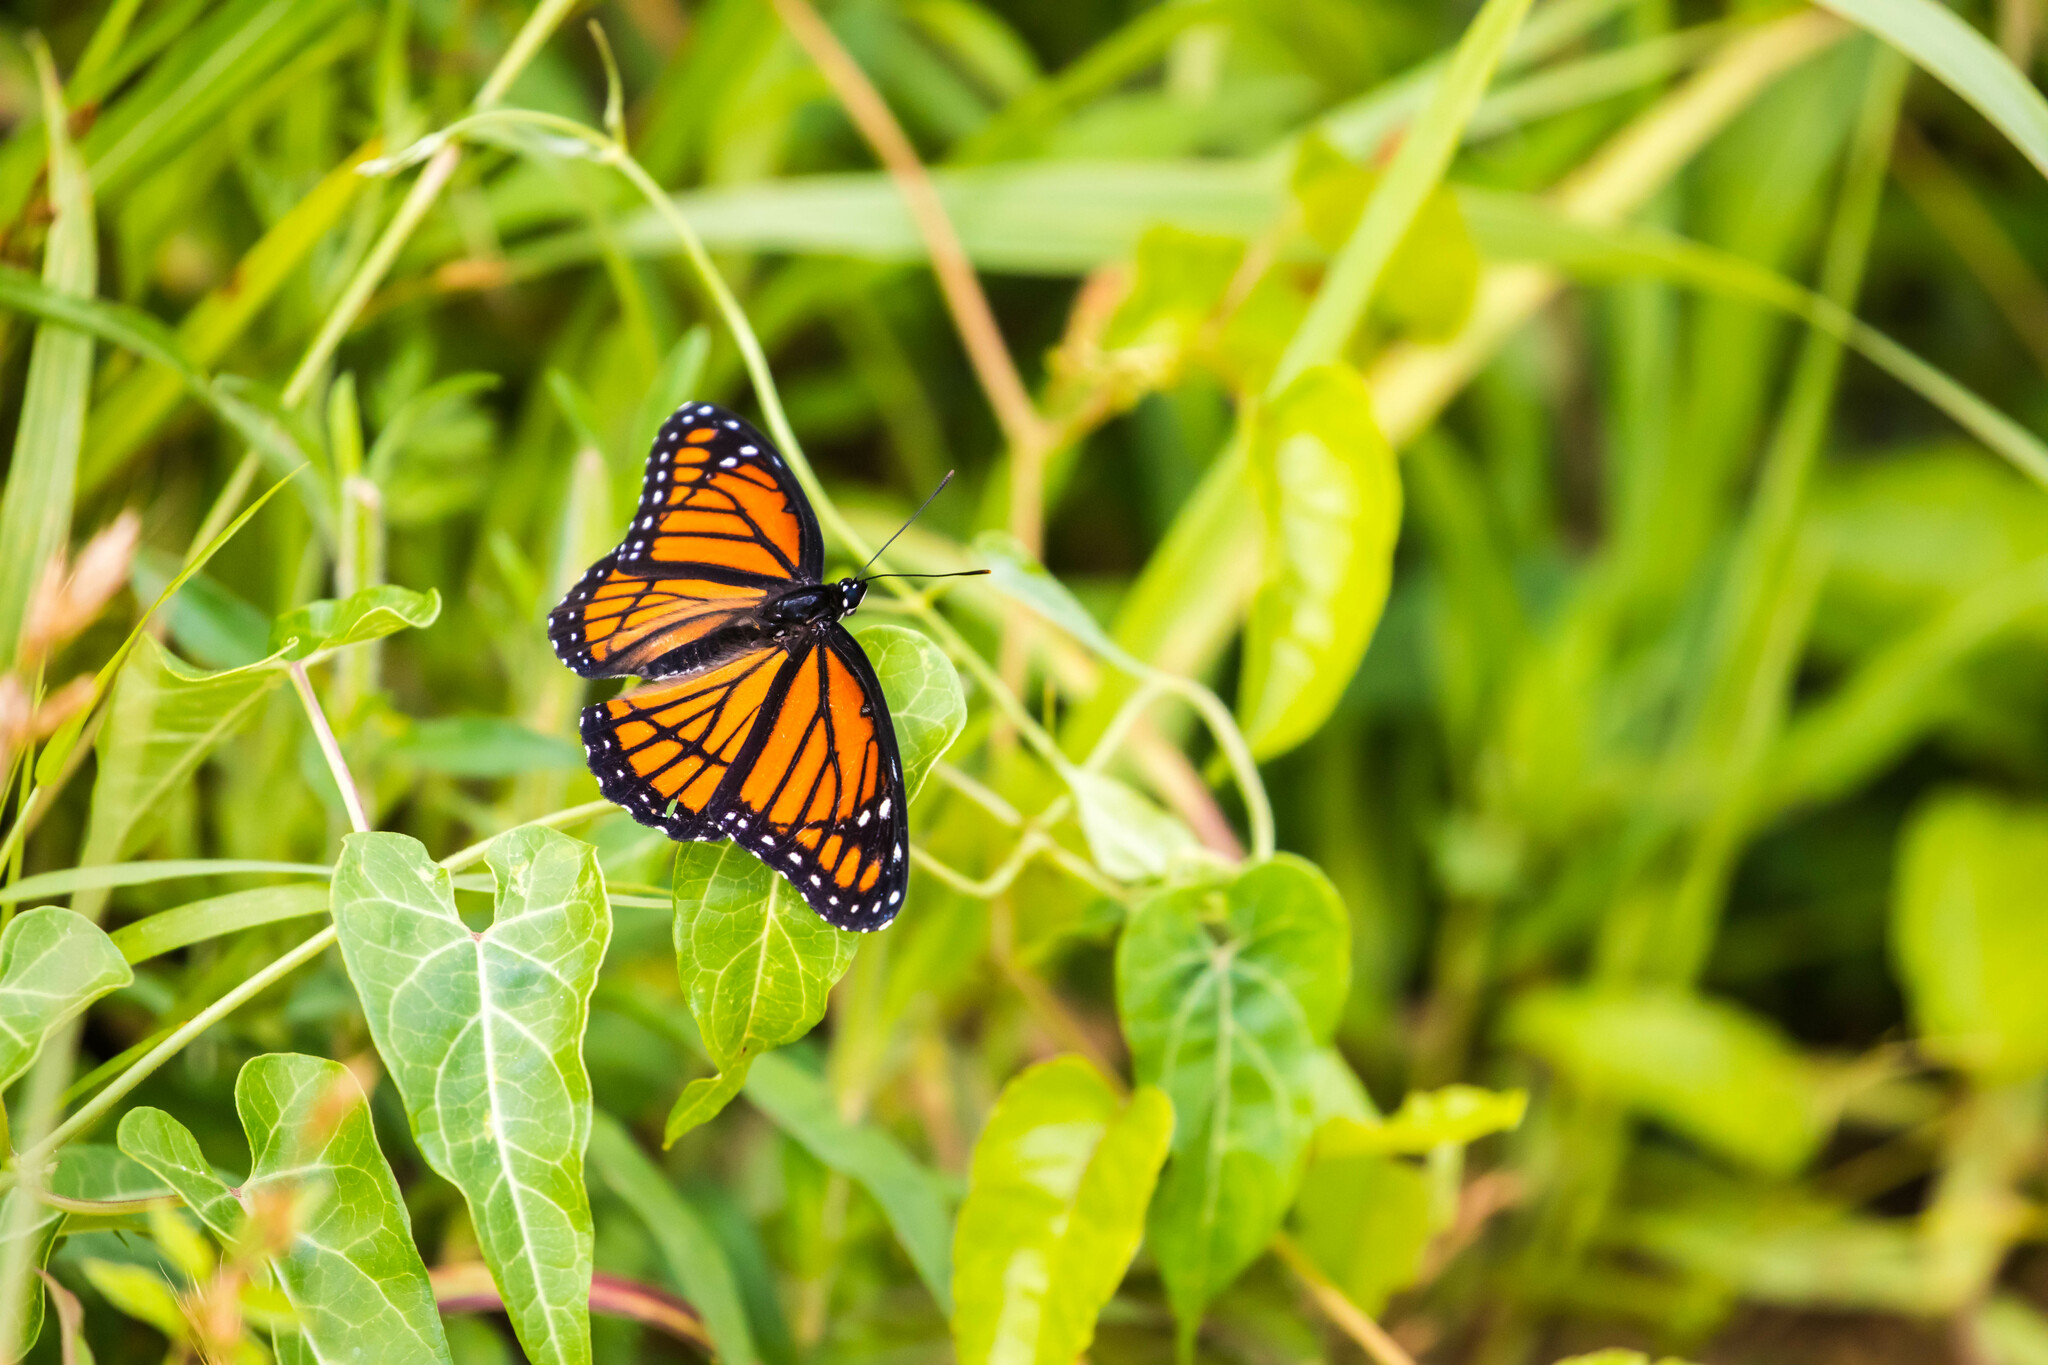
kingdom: Animalia
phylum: Arthropoda
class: Insecta
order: Lepidoptera
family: Nymphalidae
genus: Limenitis
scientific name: Limenitis archippus
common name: Viceroy
